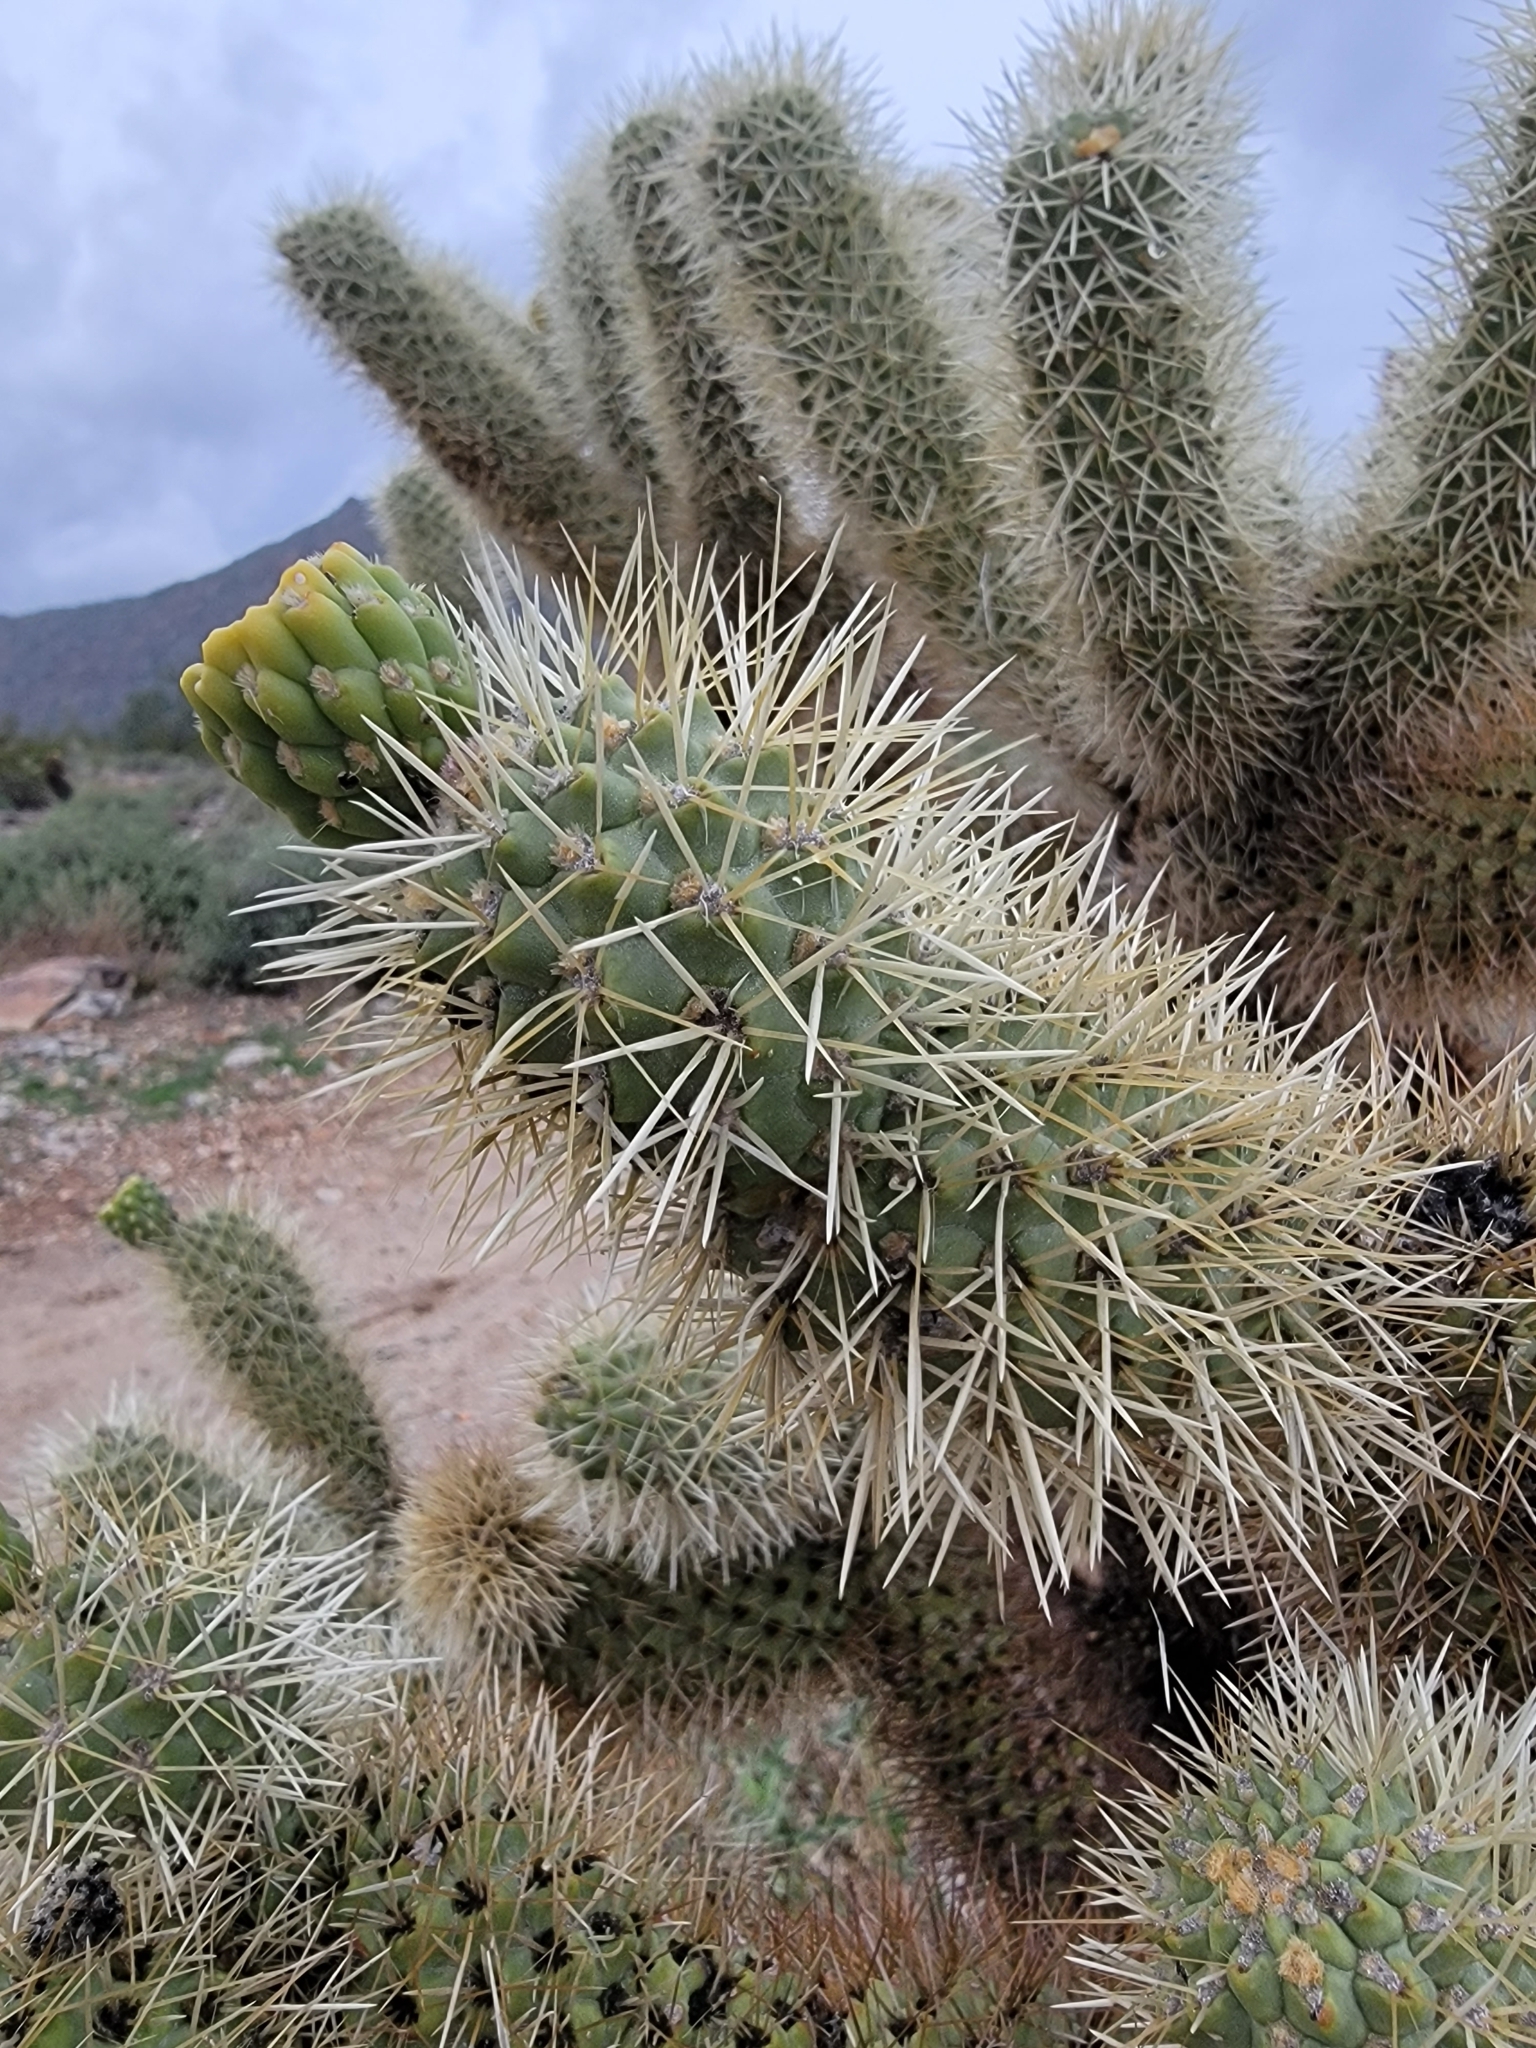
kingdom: Plantae
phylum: Tracheophyta
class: Magnoliopsida
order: Caryophyllales
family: Cactaceae
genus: Cylindropuntia
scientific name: Cylindropuntia fosbergii
